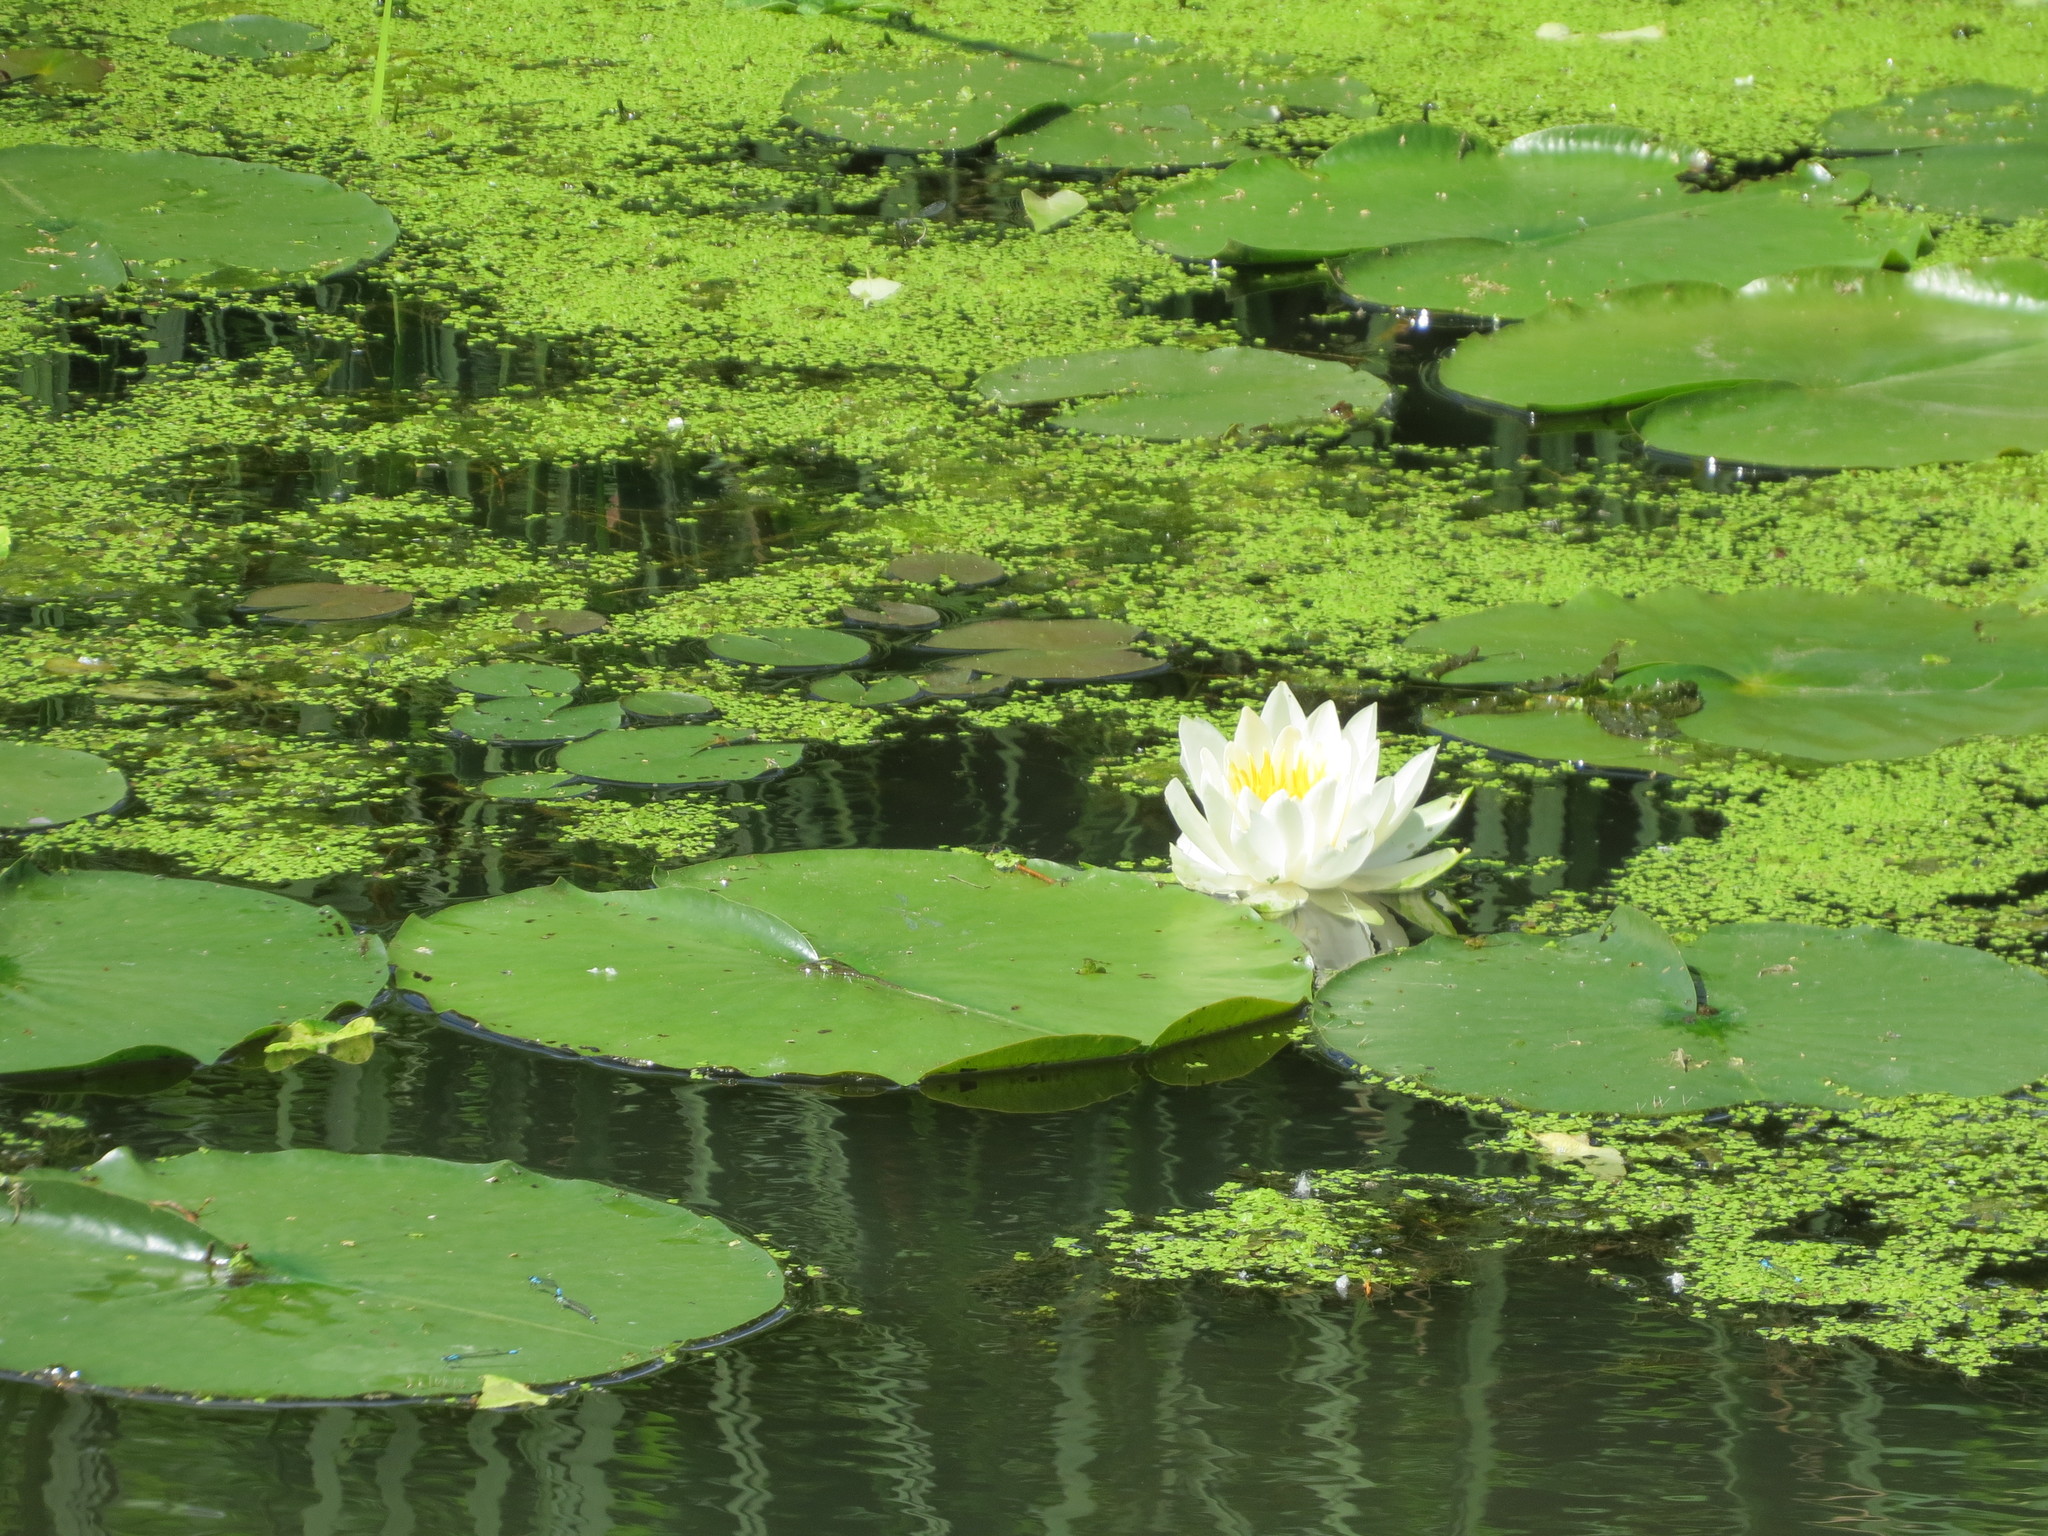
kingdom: Plantae
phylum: Tracheophyta
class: Magnoliopsida
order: Nymphaeales
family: Nymphaeaceae
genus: Nymphaea
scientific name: Nymphaea odorata
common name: Fragrant water-lily
